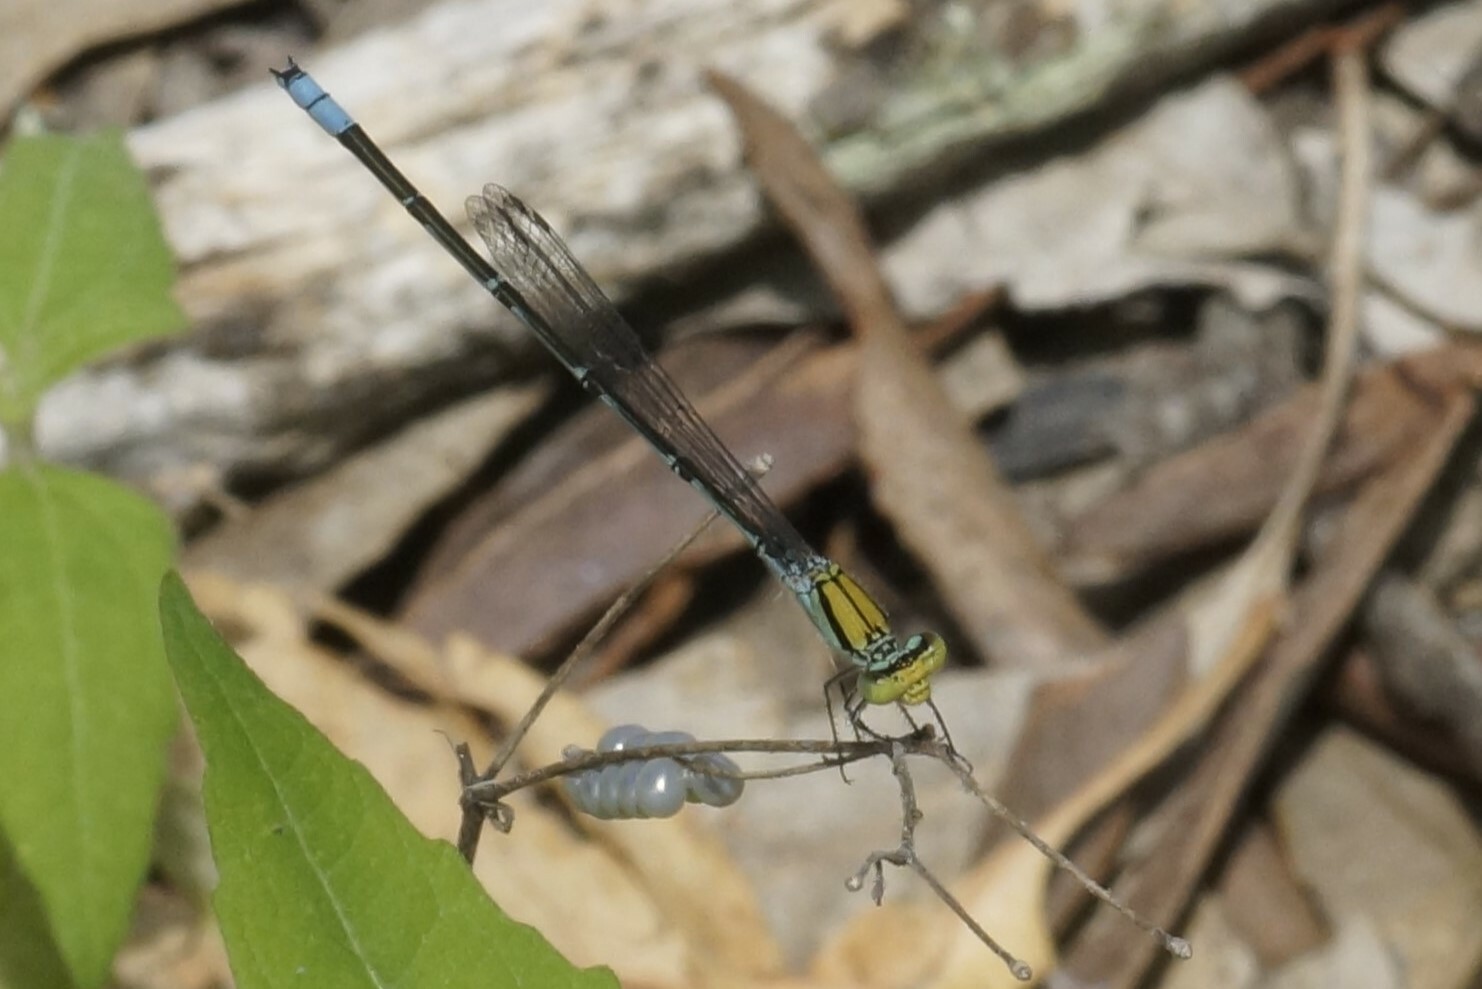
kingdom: Animalia
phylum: Arthropoda
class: Insecta
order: Odonata
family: Coenagrionidae
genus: Pseudagrion
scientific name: Pseudagrion aureofrons
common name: Gold-fronted riverdamsel
